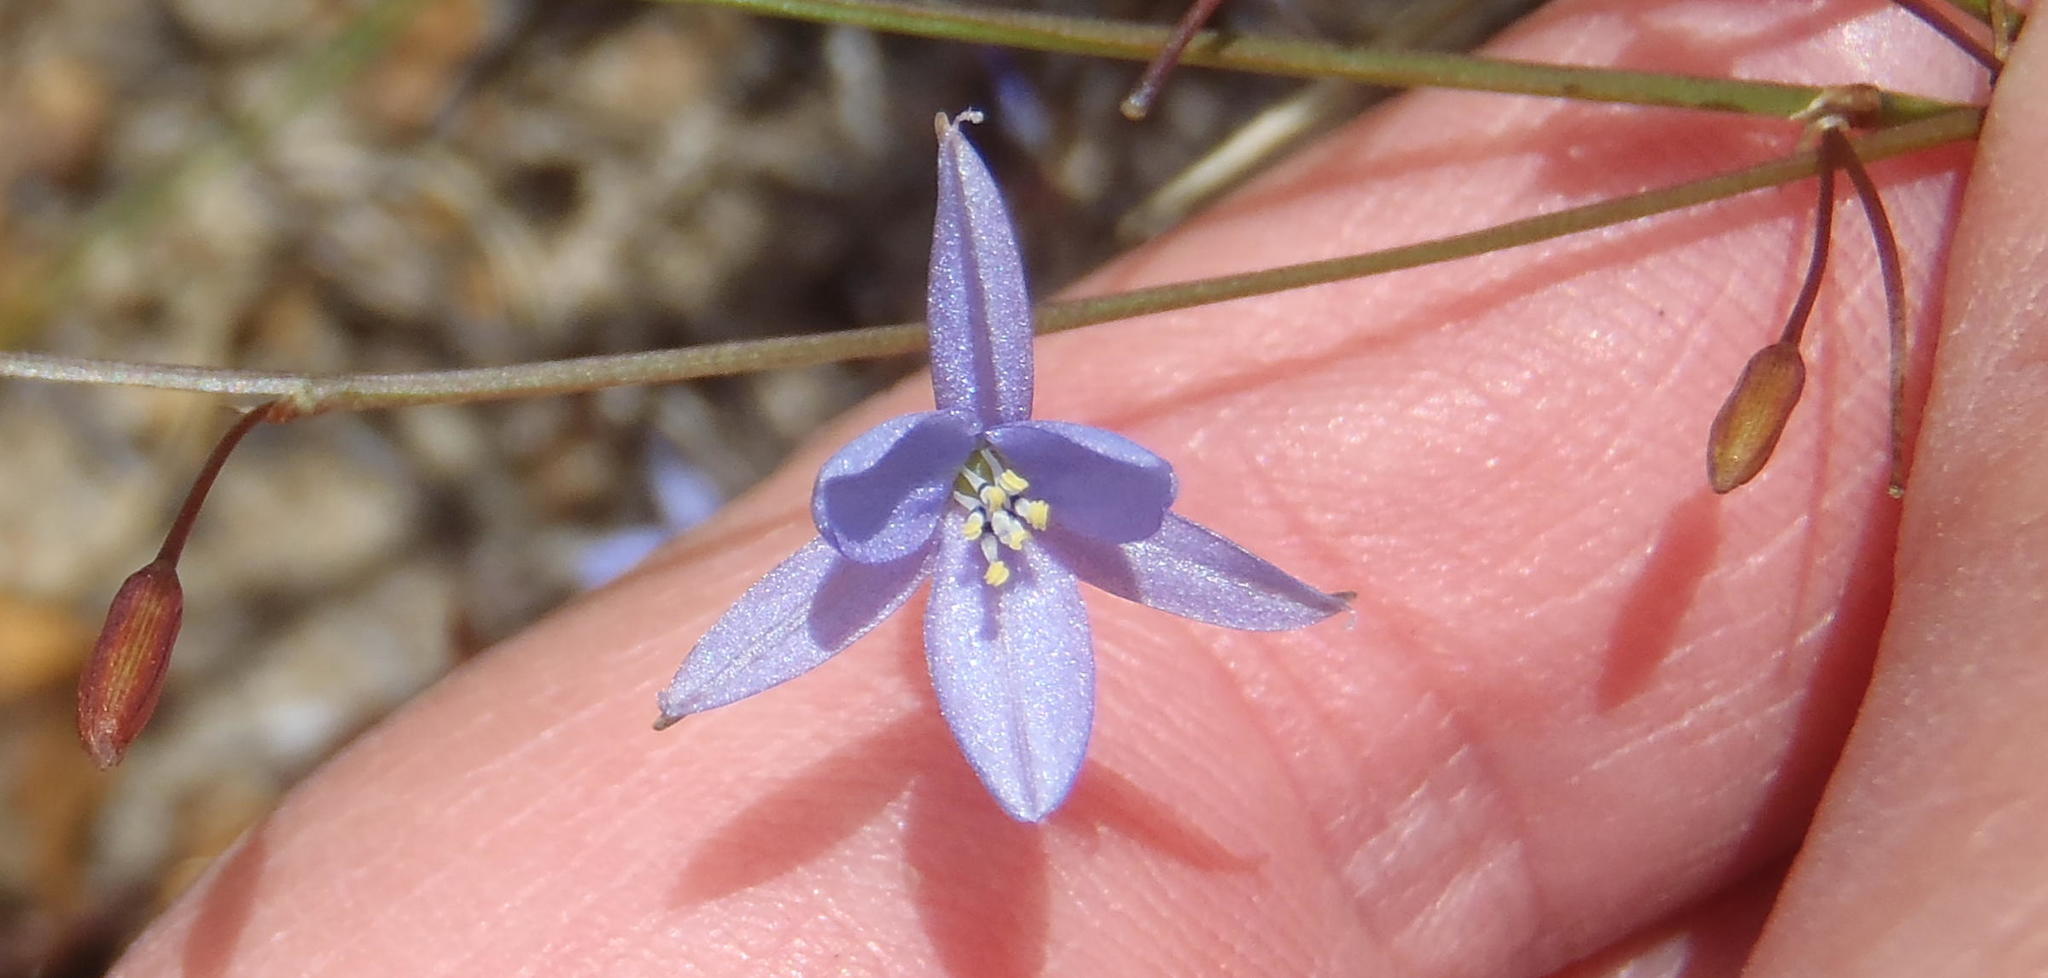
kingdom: Plantae
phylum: Tracheophyta
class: Liliopsida
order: Asparagales
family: Asphodelaceae
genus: Caesia
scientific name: Caesia contorta
